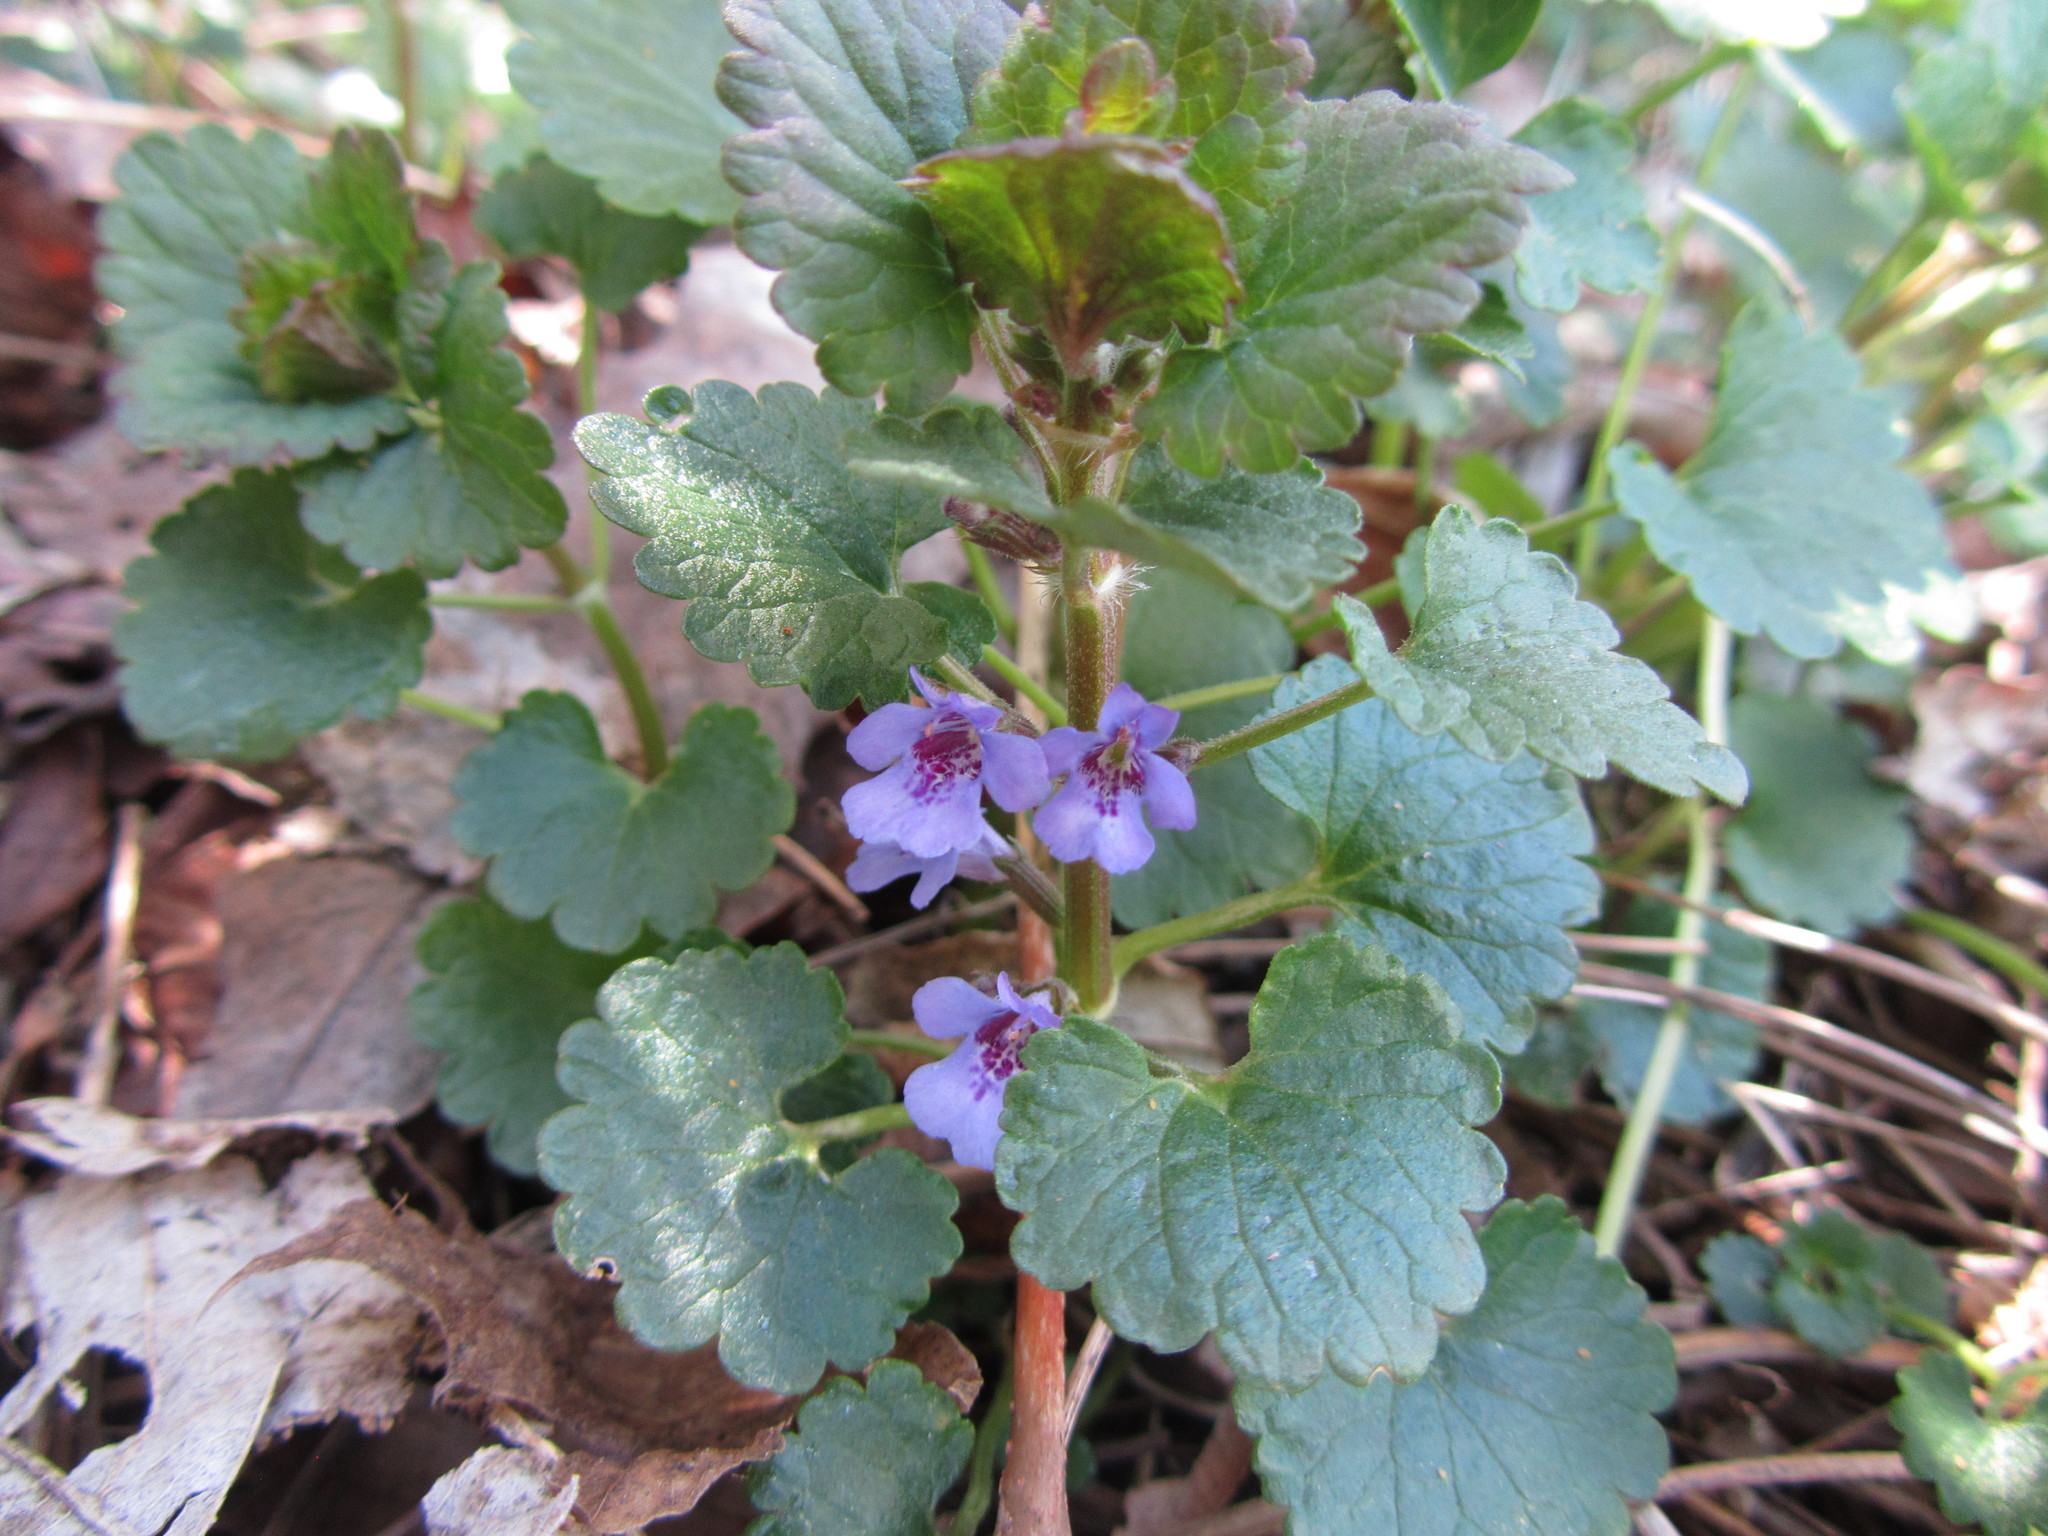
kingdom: Plantae
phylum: Tracheophyta
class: Magnoliopsida
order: Lamiales
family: Lamiaceae
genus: Glechoma
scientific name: Glechoma hederacea
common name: Ground ivy
